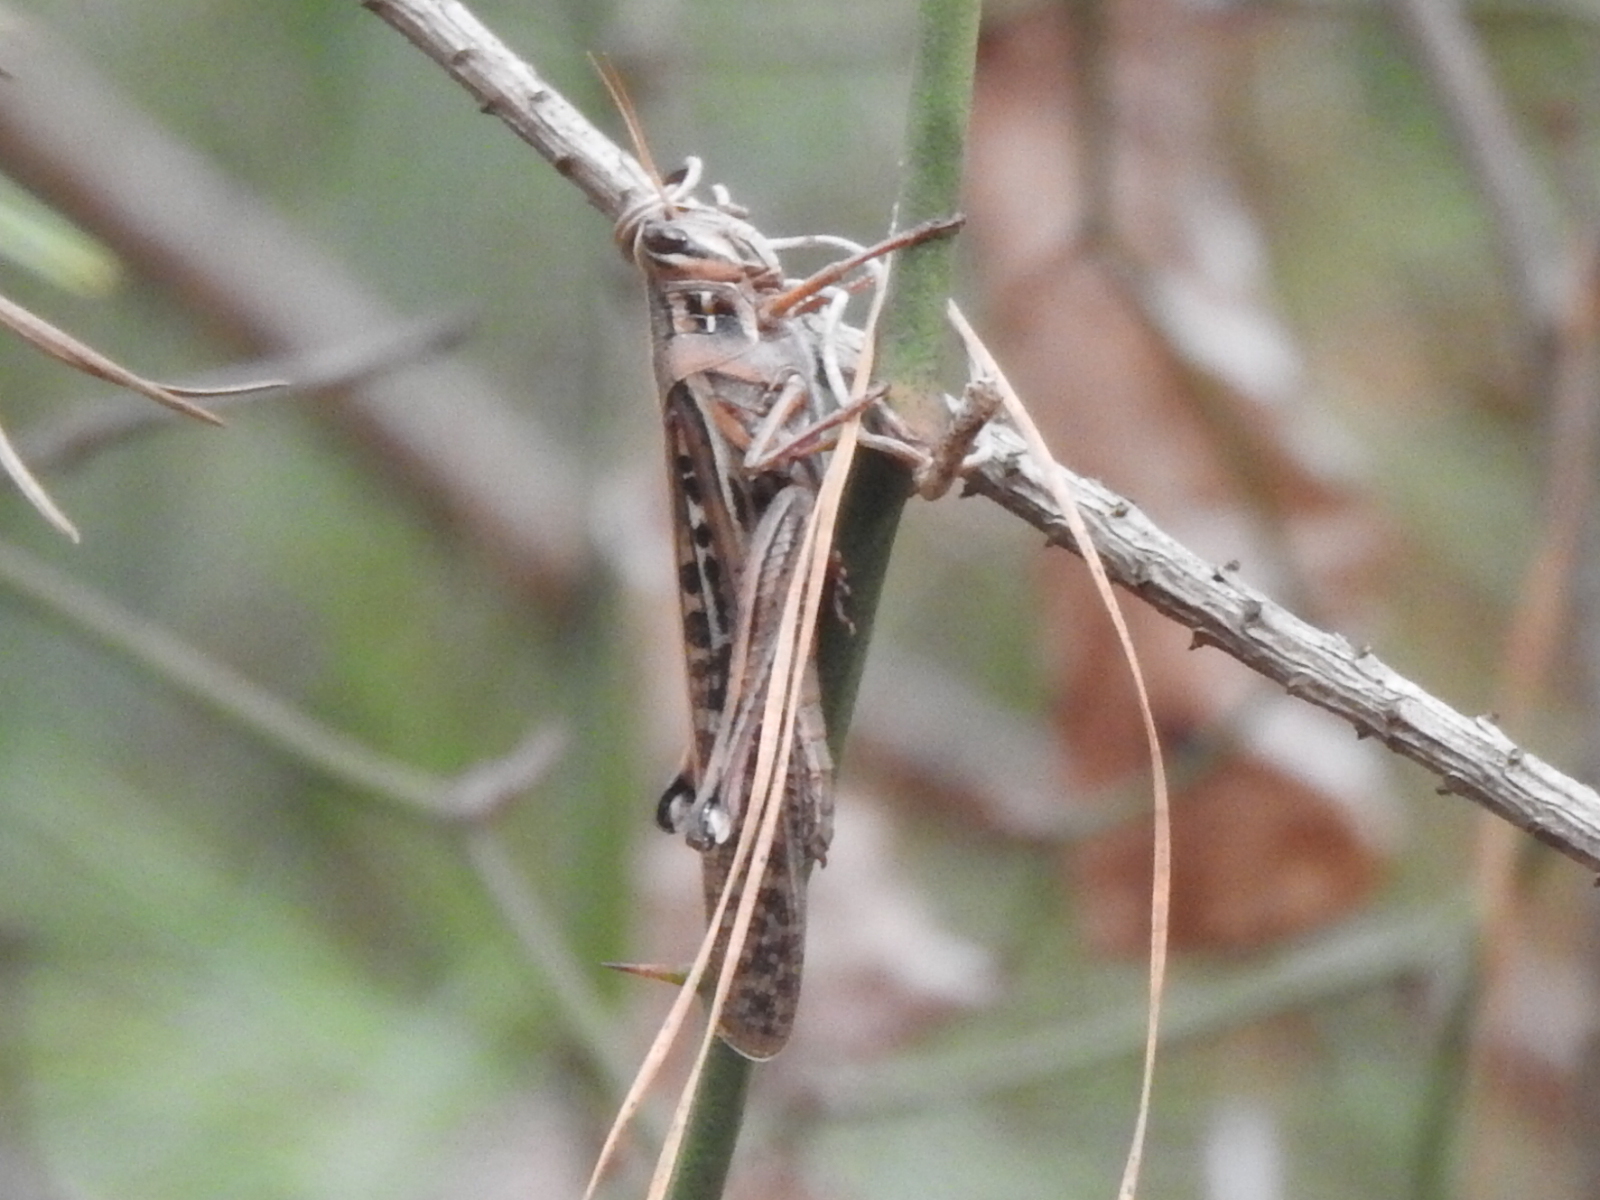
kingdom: Animalia
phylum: Arthropoda
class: Insecta
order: Orthoptera
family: Acrididae
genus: Schistocerca
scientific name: Schistocerca americana
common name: American bird locust
